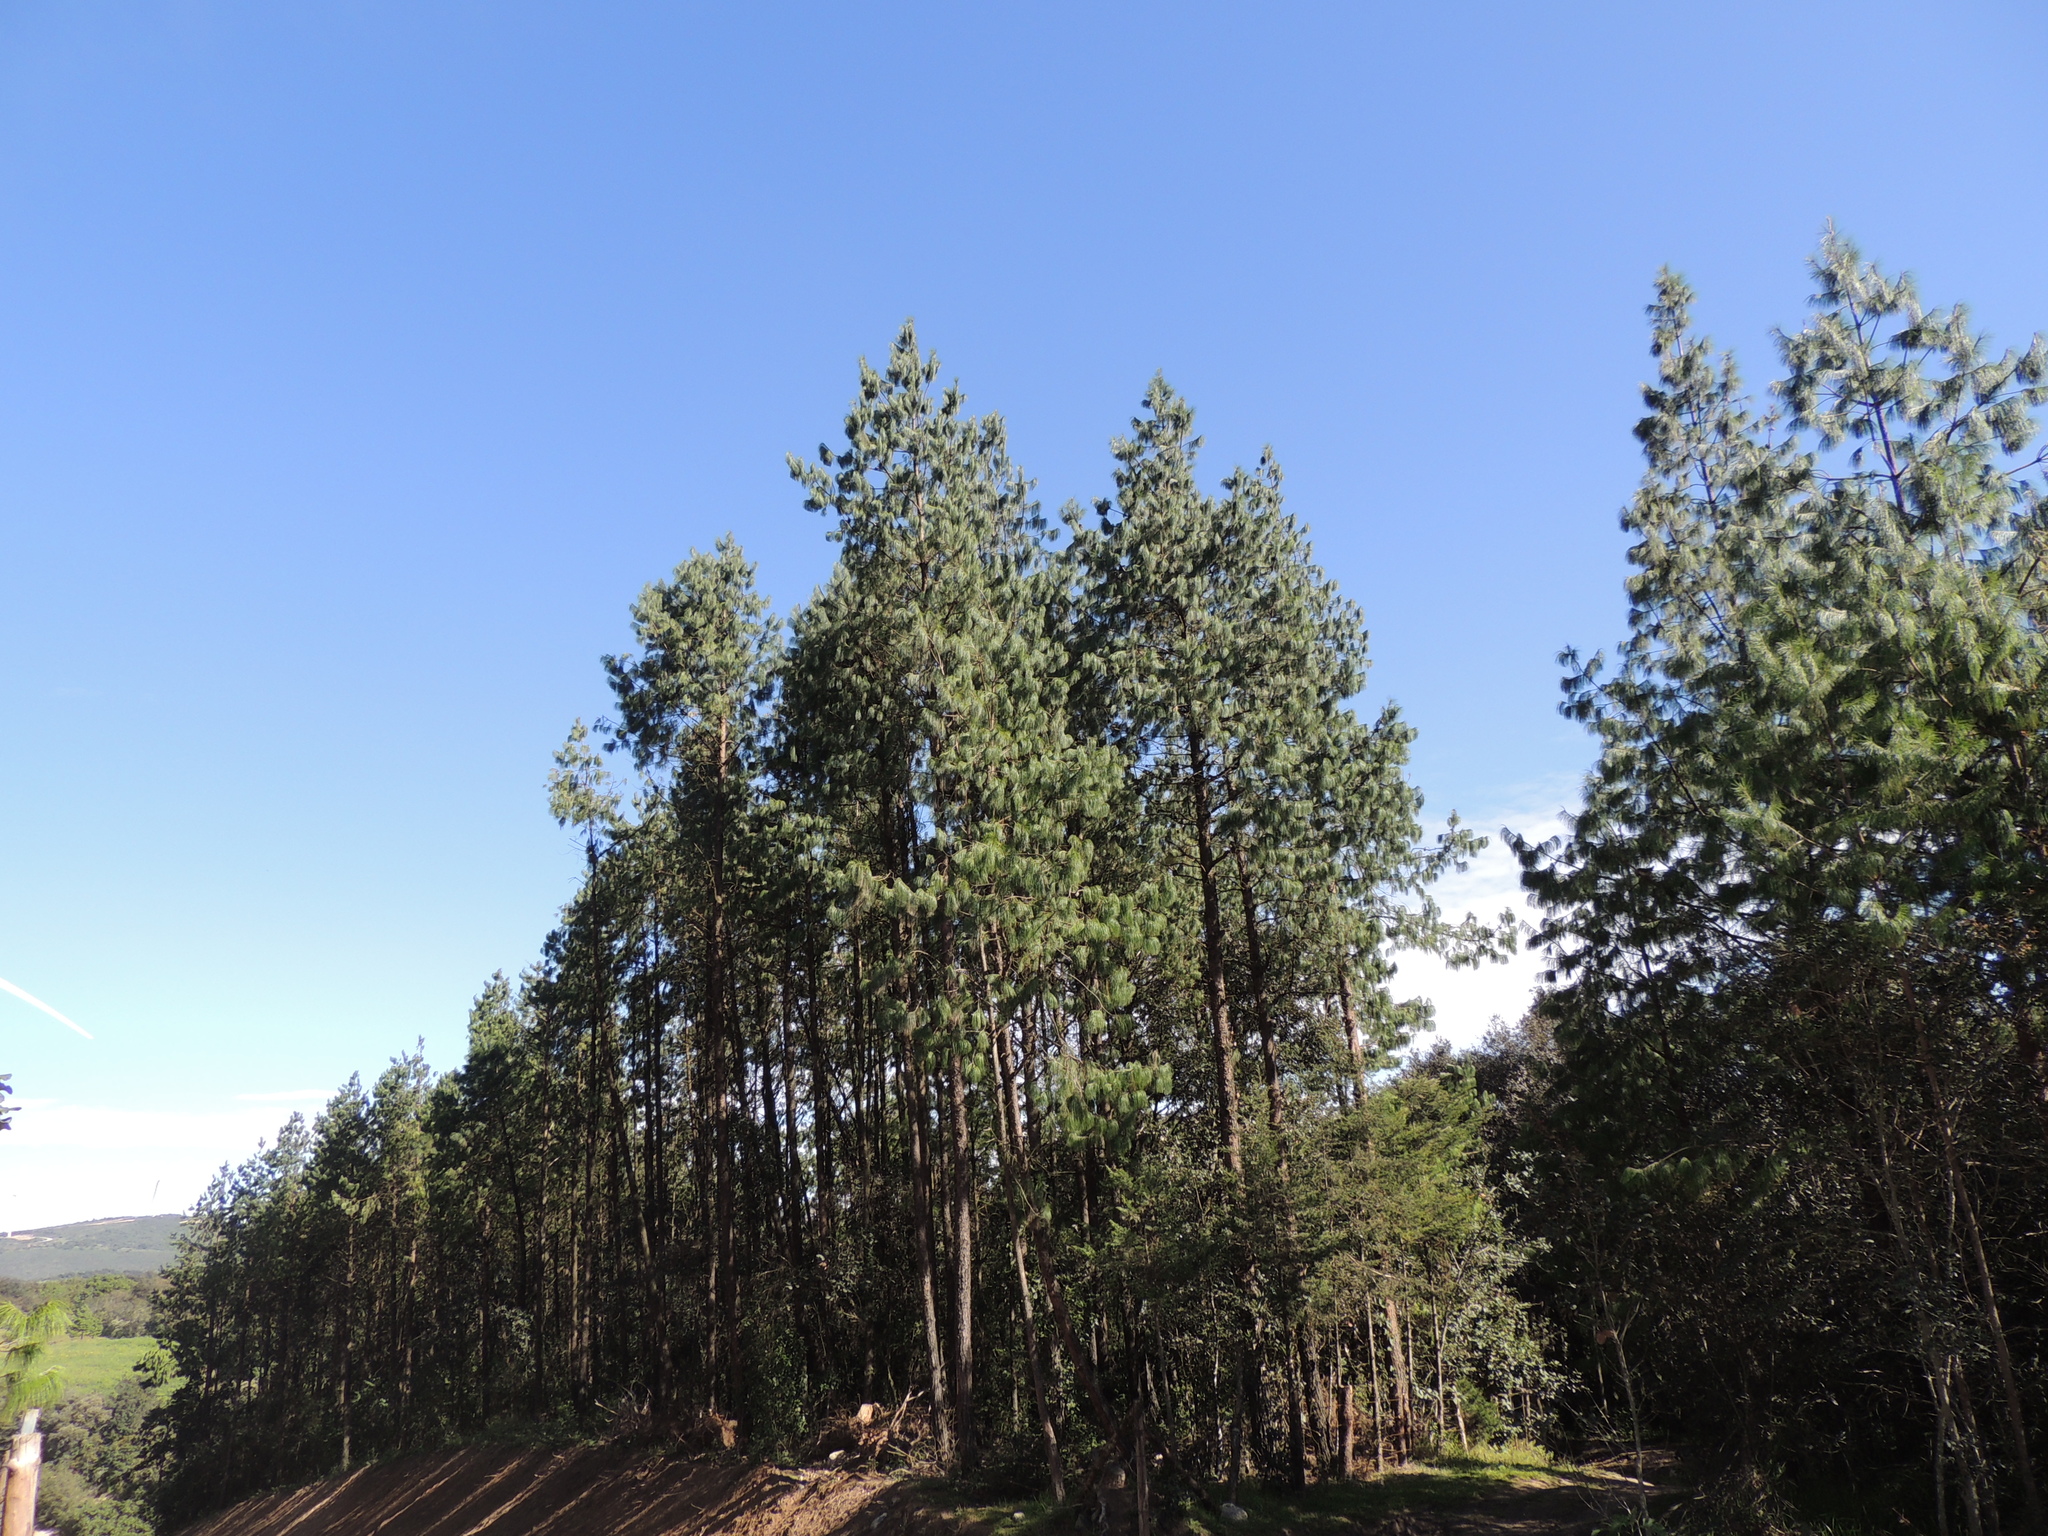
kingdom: Plantae
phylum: Tracheophyta
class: Pinopsida
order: Pinales
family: Pinaceae
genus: Pinus
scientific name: Pinus patula
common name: Mexican weeping pine
